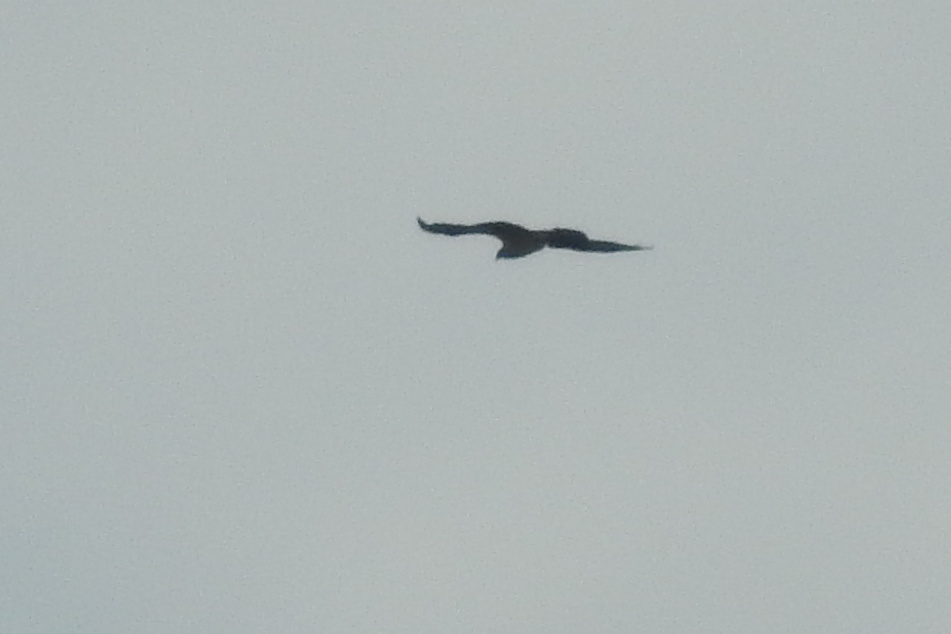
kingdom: Animalia
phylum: Chordata
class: Aves
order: Accipitriformes
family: Pandionidae
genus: Pandion
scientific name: Pandion haliaetus
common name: Osprey
